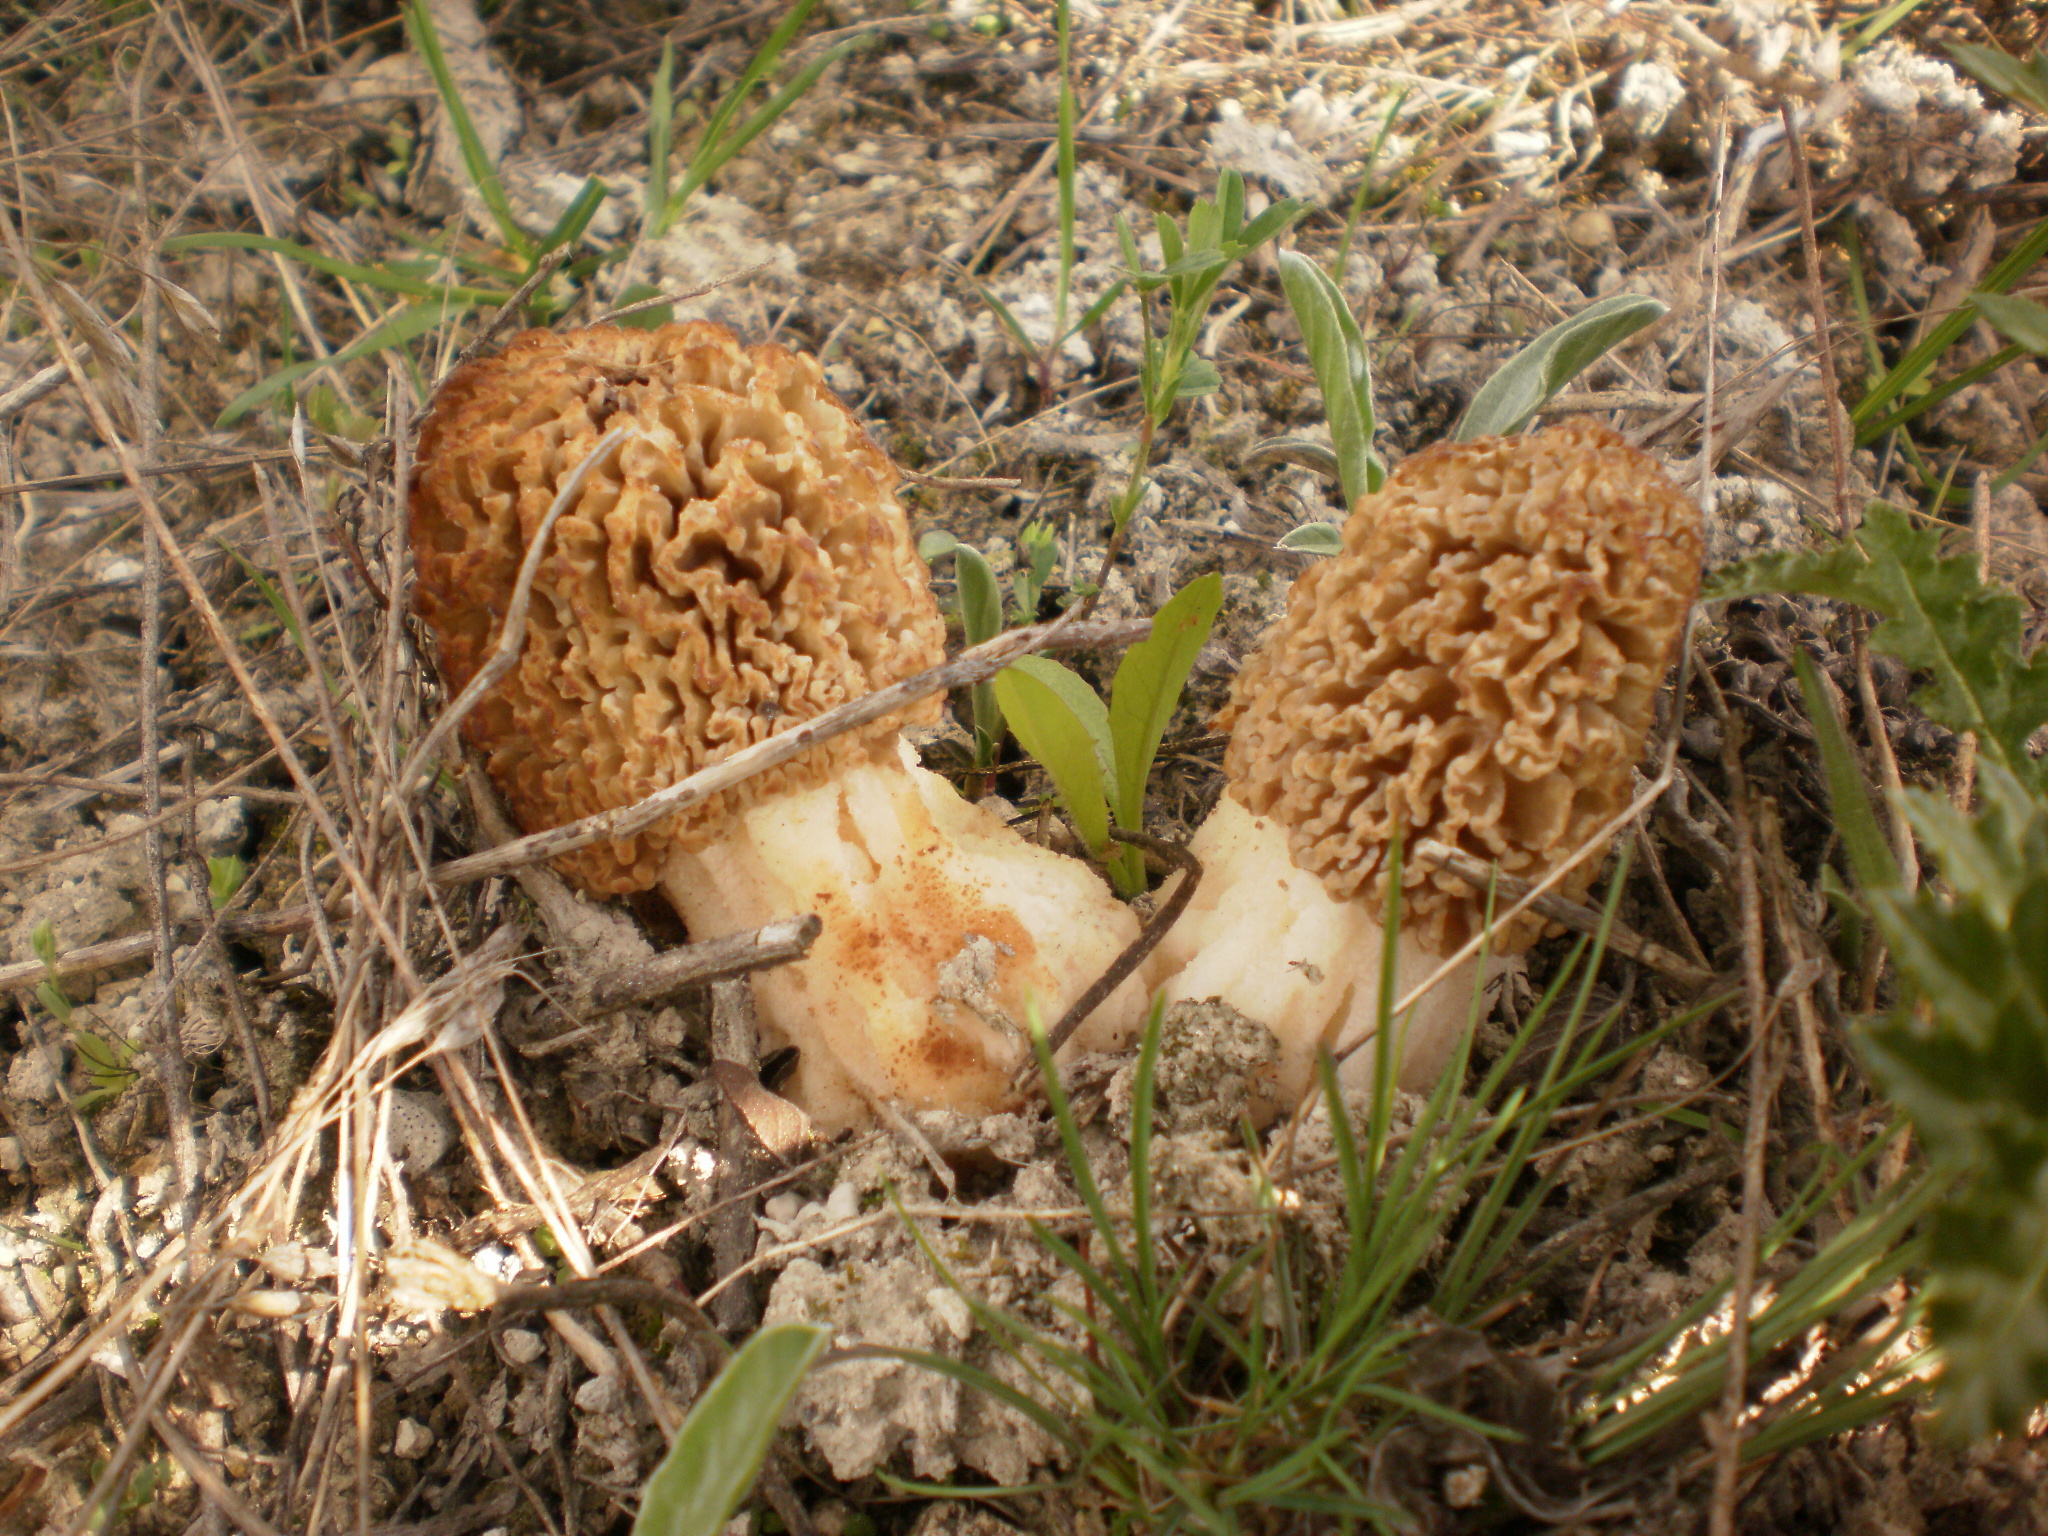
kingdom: Fungi
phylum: Ascomycota
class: Pezizomycetes
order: Pezizales
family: Morchellaceae
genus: Morchella
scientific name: Morchella steppicola
